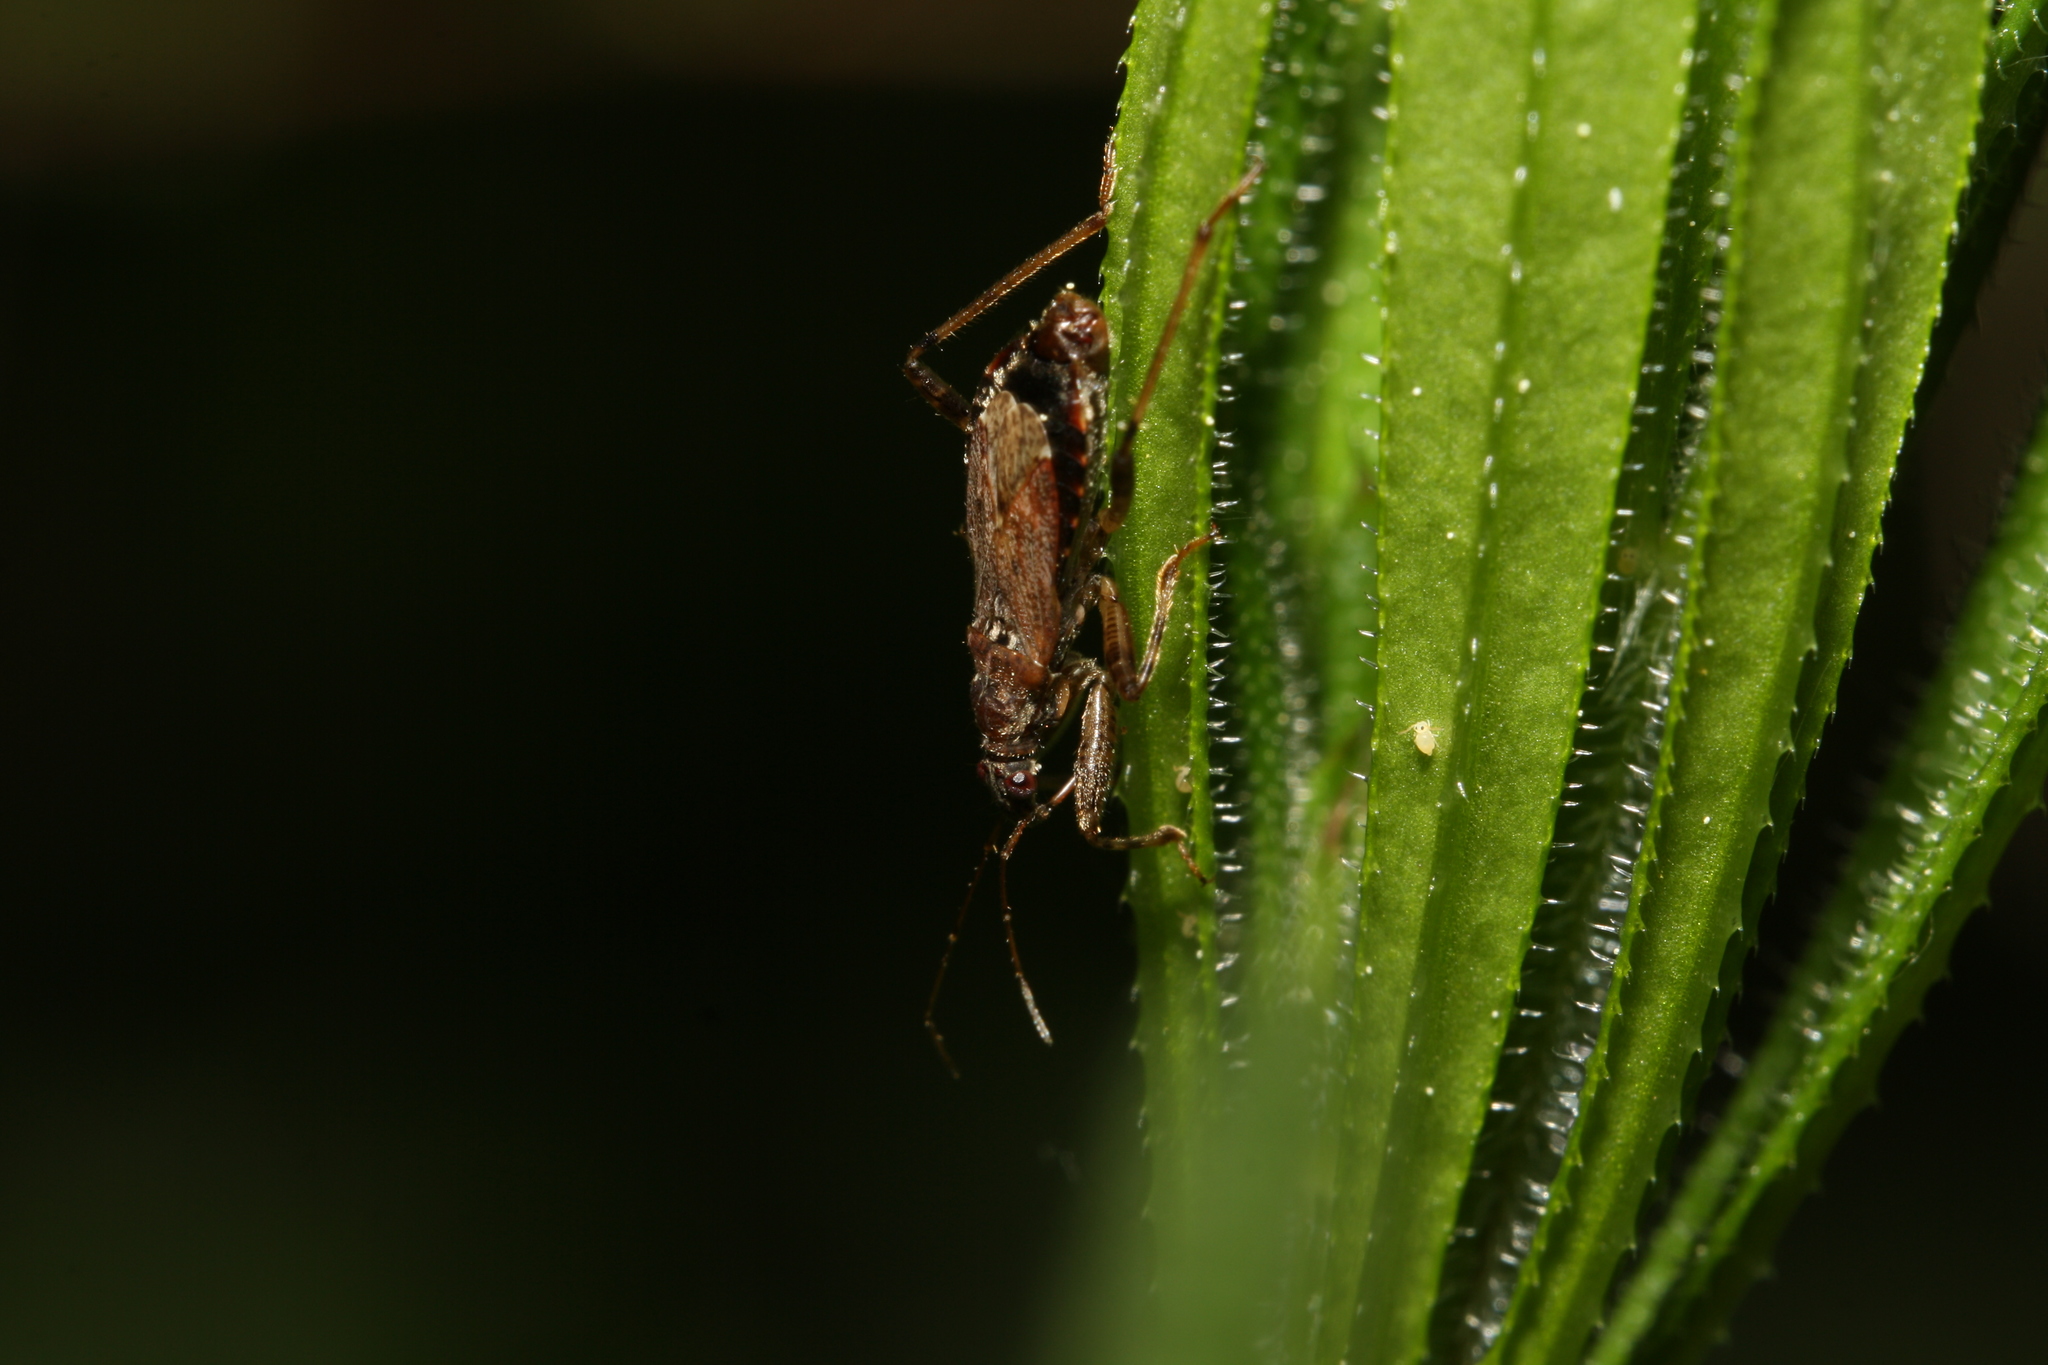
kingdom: Animalia
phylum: Arthropoda
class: Insecta
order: Hemiptera
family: Nabidae
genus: Himacerus
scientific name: Himacerus mirmicoides
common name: Ant damsel bug
